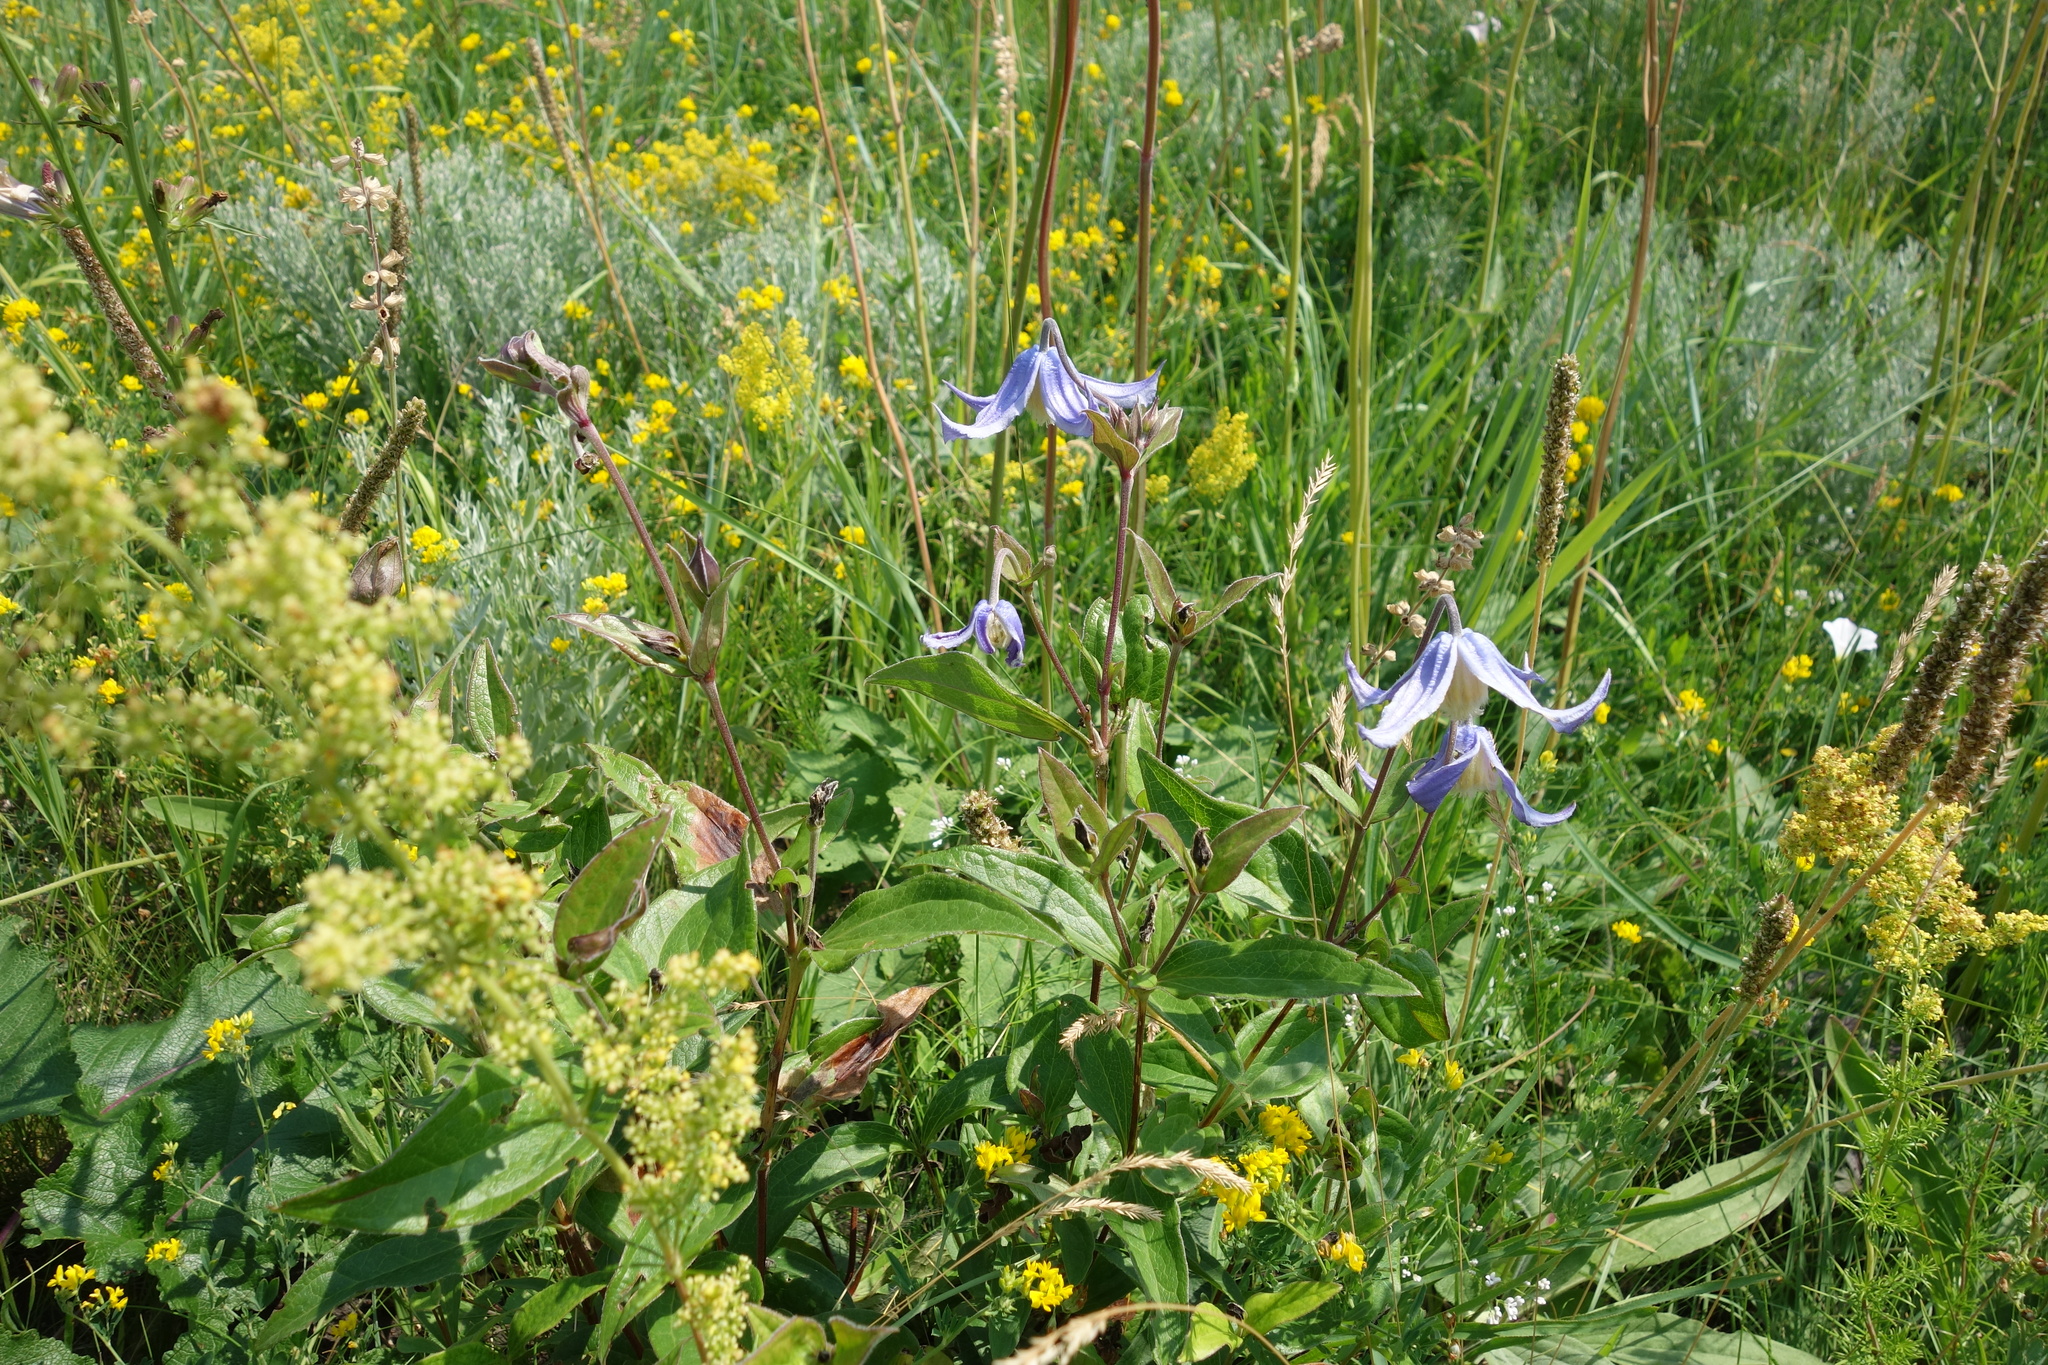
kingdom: Plantae
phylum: Tracheophyta
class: Magnoliopsida
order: Ranunculales
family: Ranunculaceae
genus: Clematis
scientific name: Clematis integrifolia
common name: Solitary clematis
